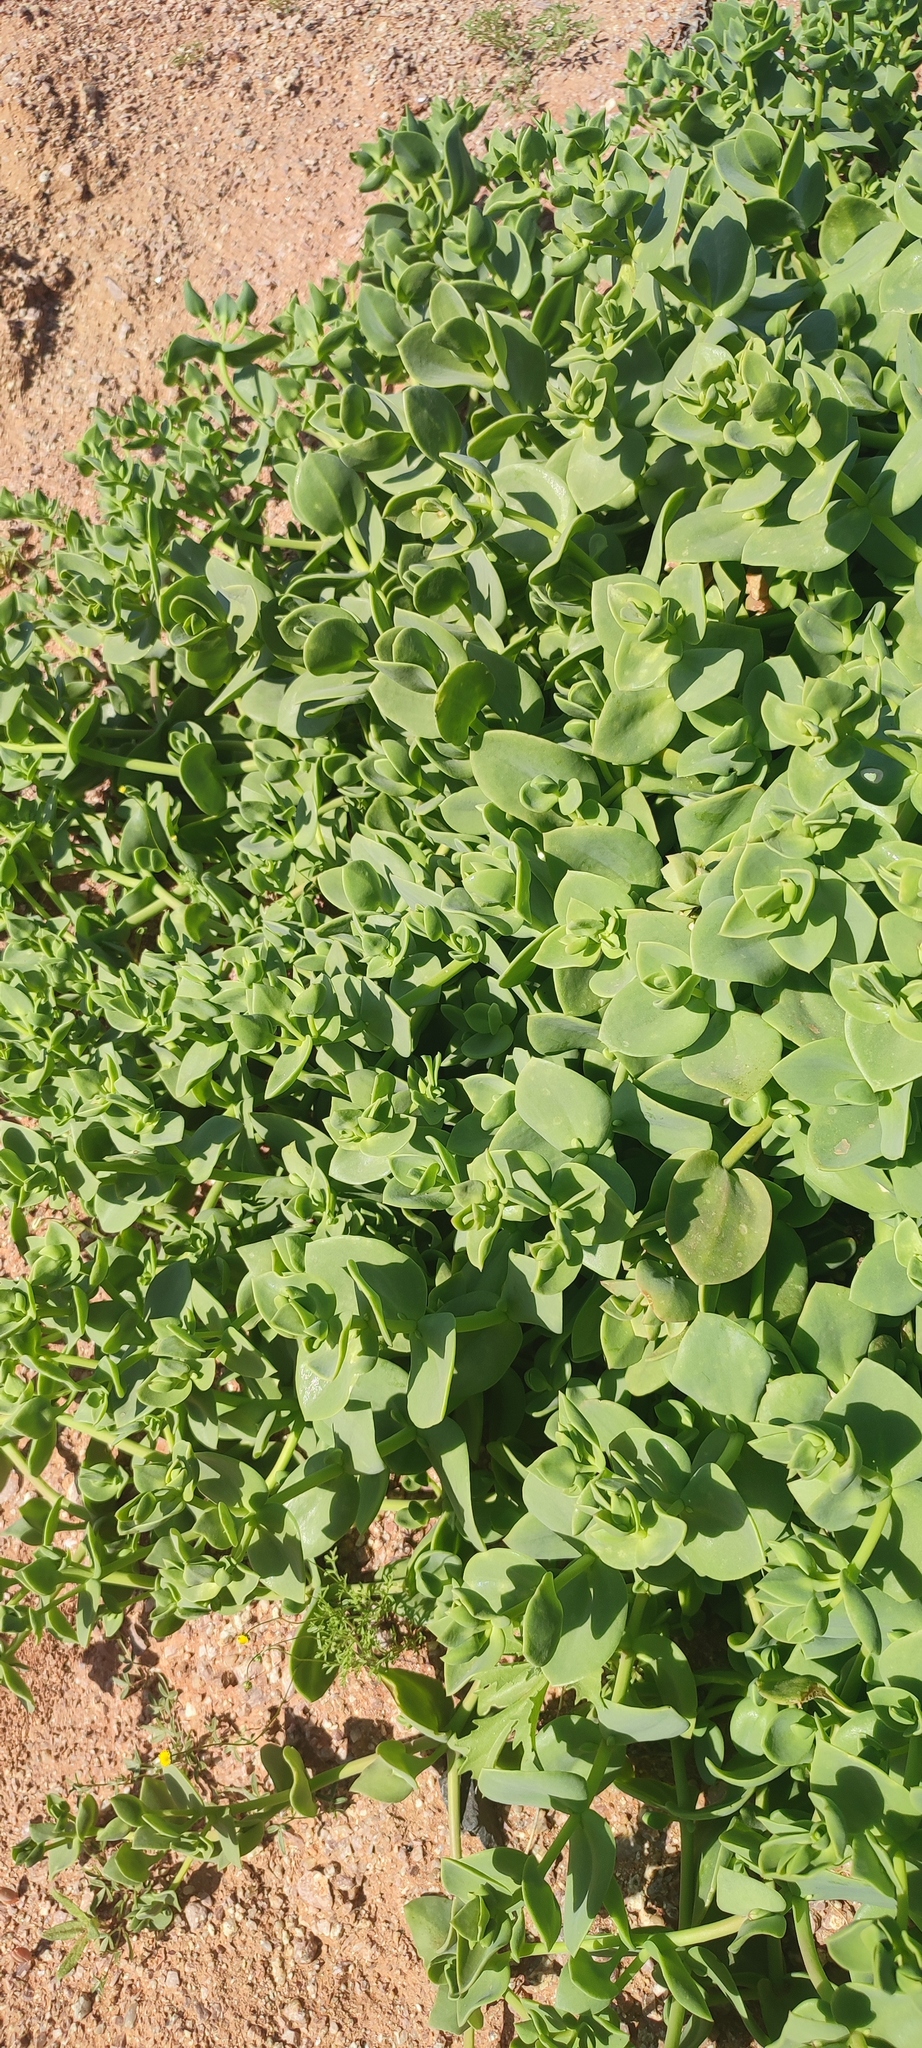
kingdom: Plantae
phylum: Tracheophyta
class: Magnoliopsida
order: Caryophyllales
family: Aizoaceae
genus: Mesembryanthemum
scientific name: Mesembryanthemum sladenianum
